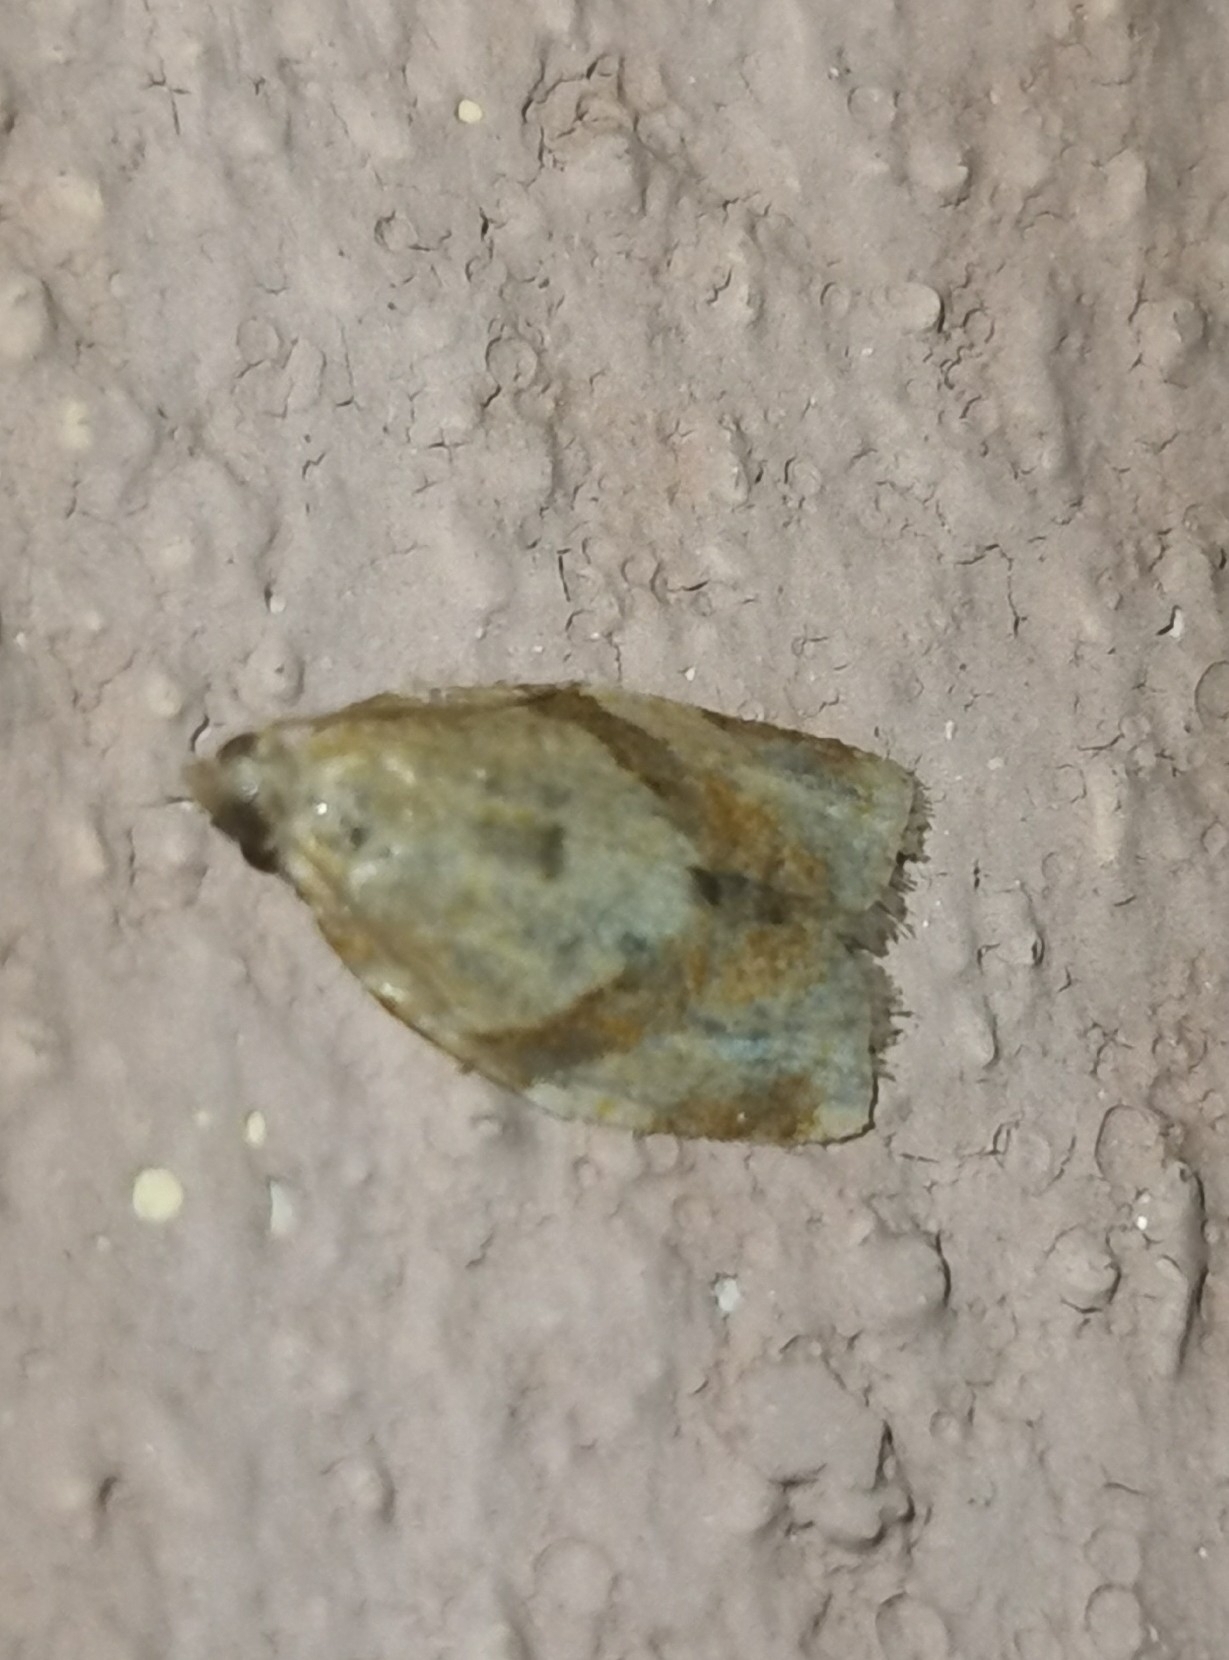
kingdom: Animalia
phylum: Arthropoda
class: Insecta
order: Lepidoptera
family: Tortricidae
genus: Clepsis
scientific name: Clepsis consimilana
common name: Privet tortrix
